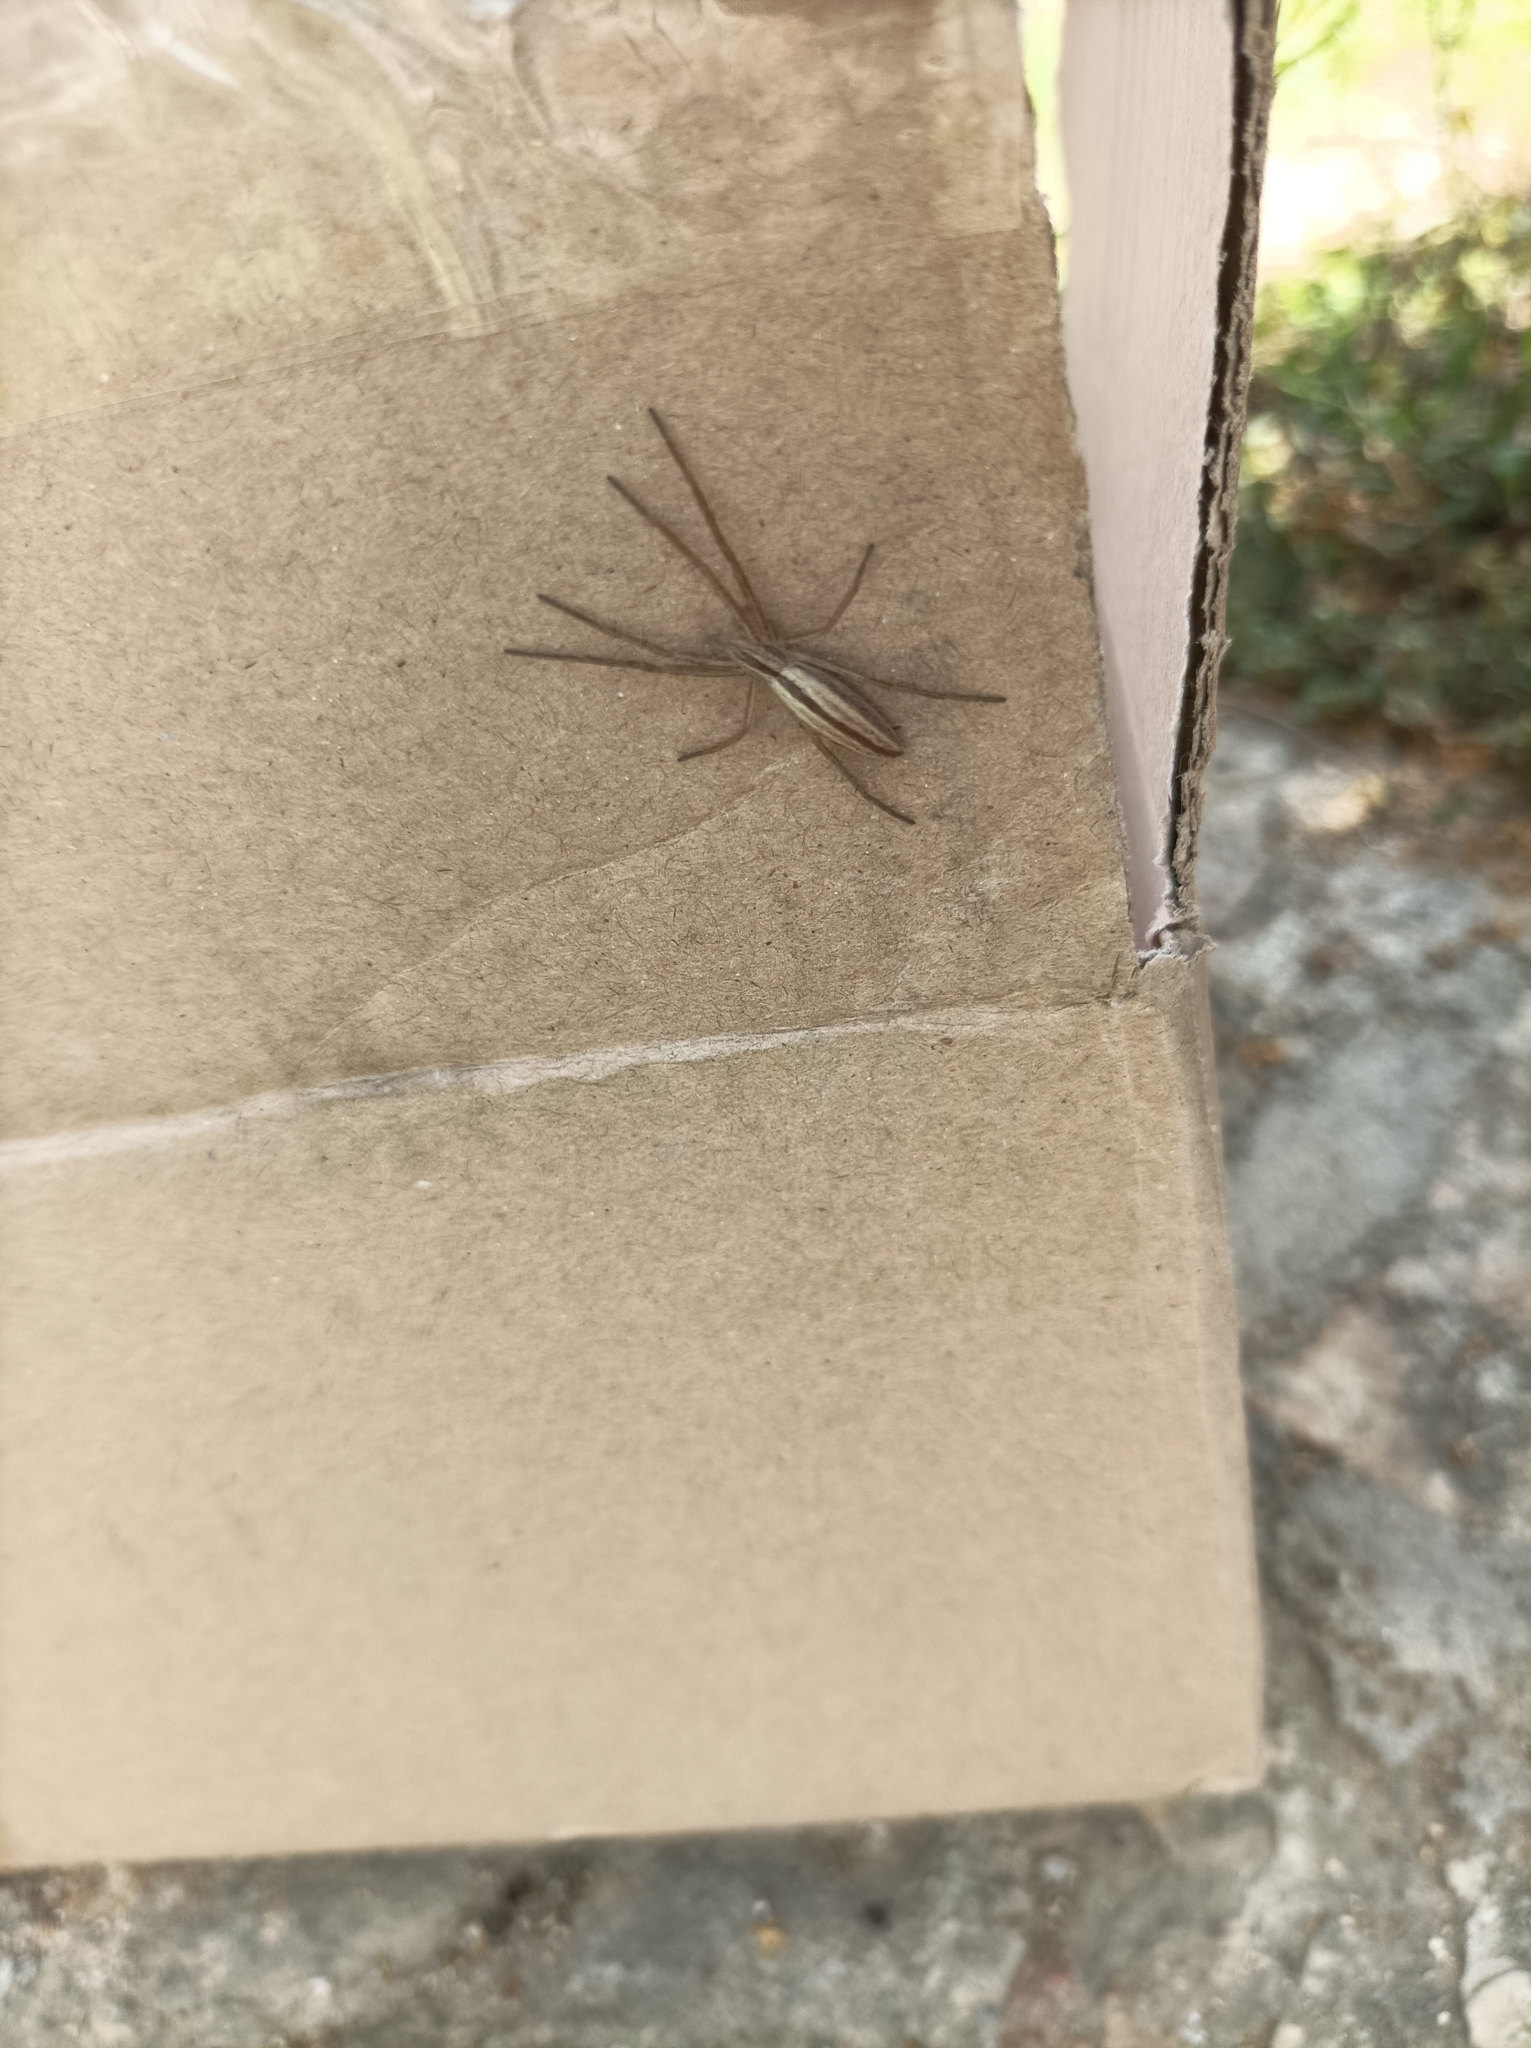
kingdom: Animalia
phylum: Arthropoda
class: Arachnida
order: Araneae
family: Philodromidae
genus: Tibellus
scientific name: Tibellus
